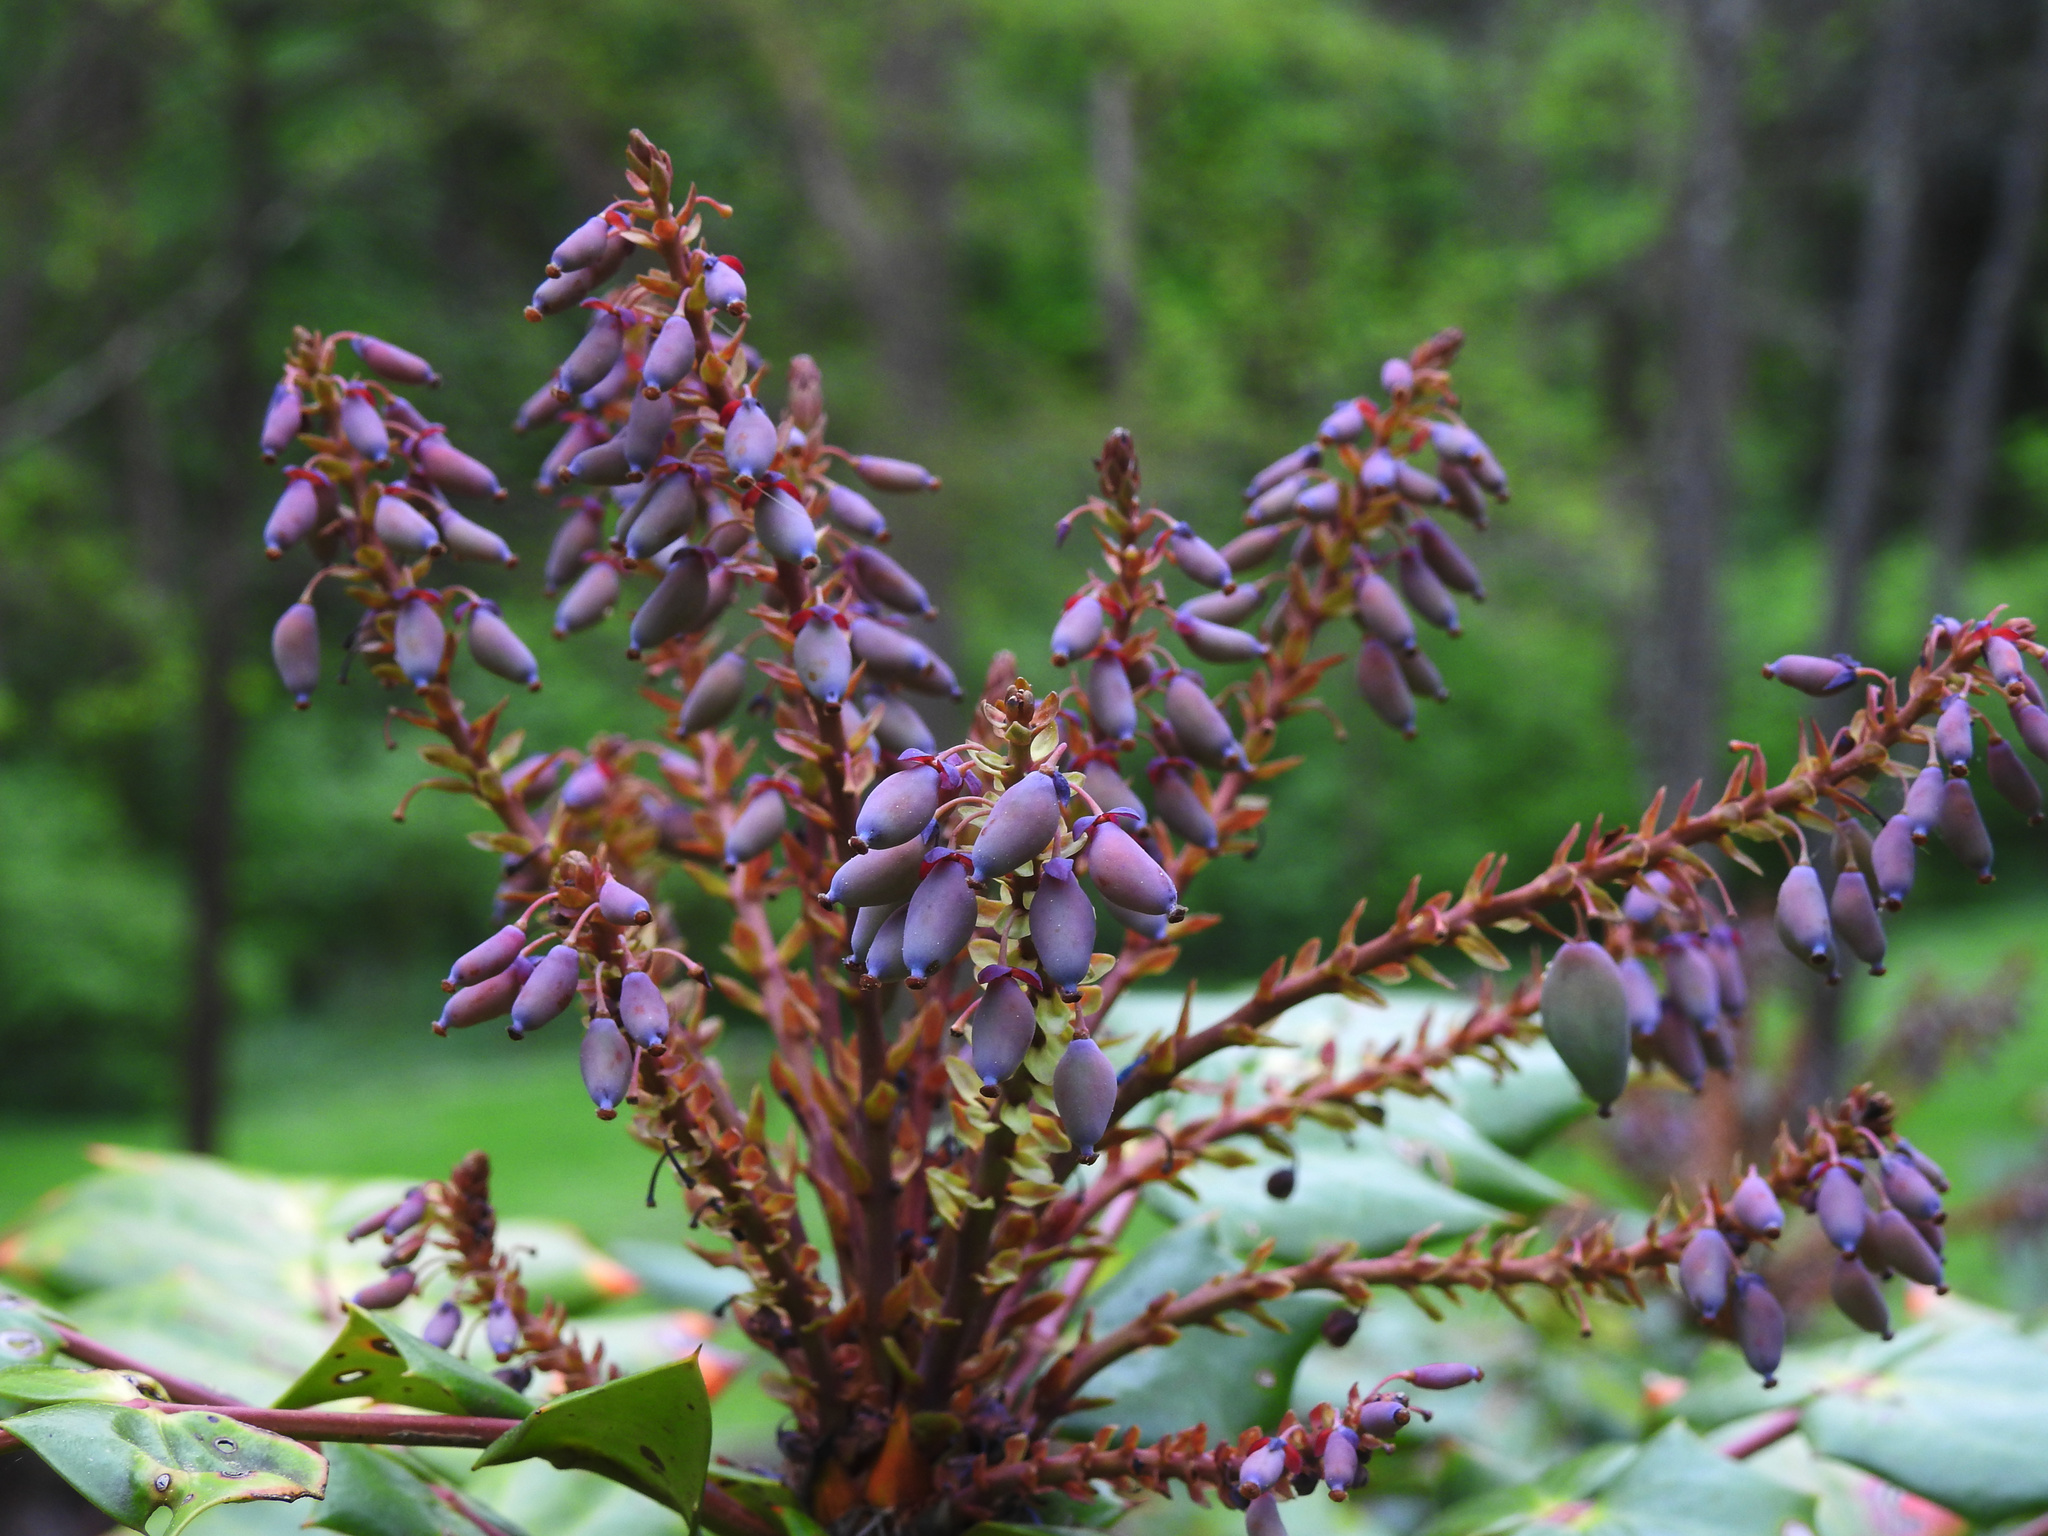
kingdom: Plantae
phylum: Tracheophyta
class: Magnoliopsida
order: Ranunculales
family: Berberidaceae
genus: Mahonia
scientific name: Mahonia bealei
